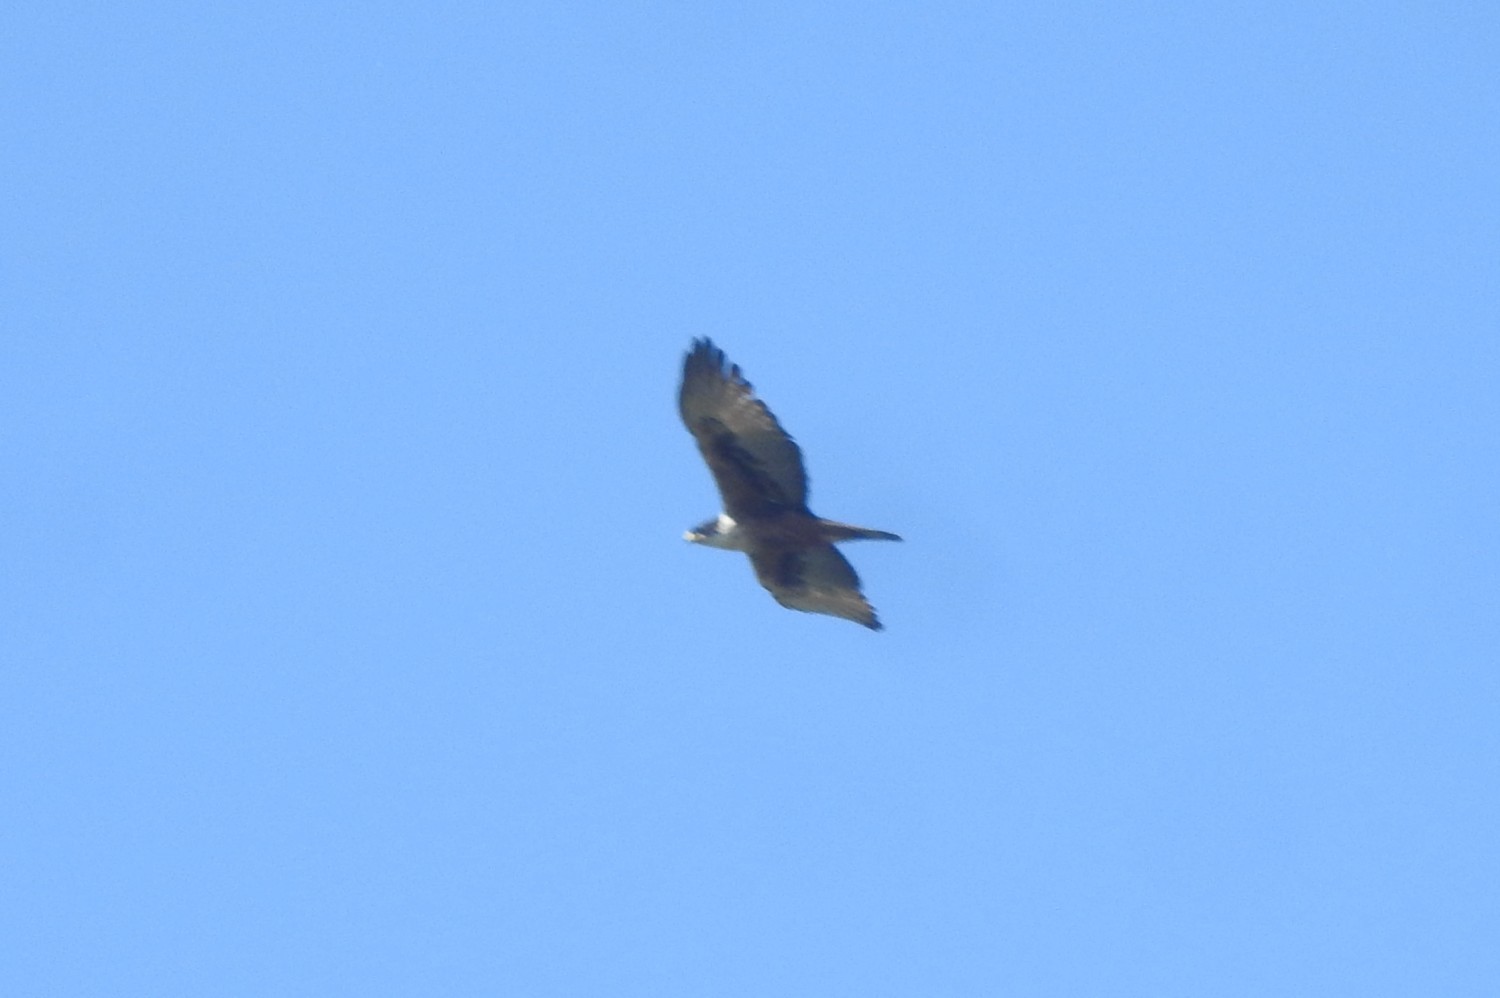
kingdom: Animalia
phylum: Chordata
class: Aves
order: Accipitriformes
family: Accipitridae
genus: Lophotriorchis
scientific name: Lophotriorchis kienerii
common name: Rufous-bellied eagle
